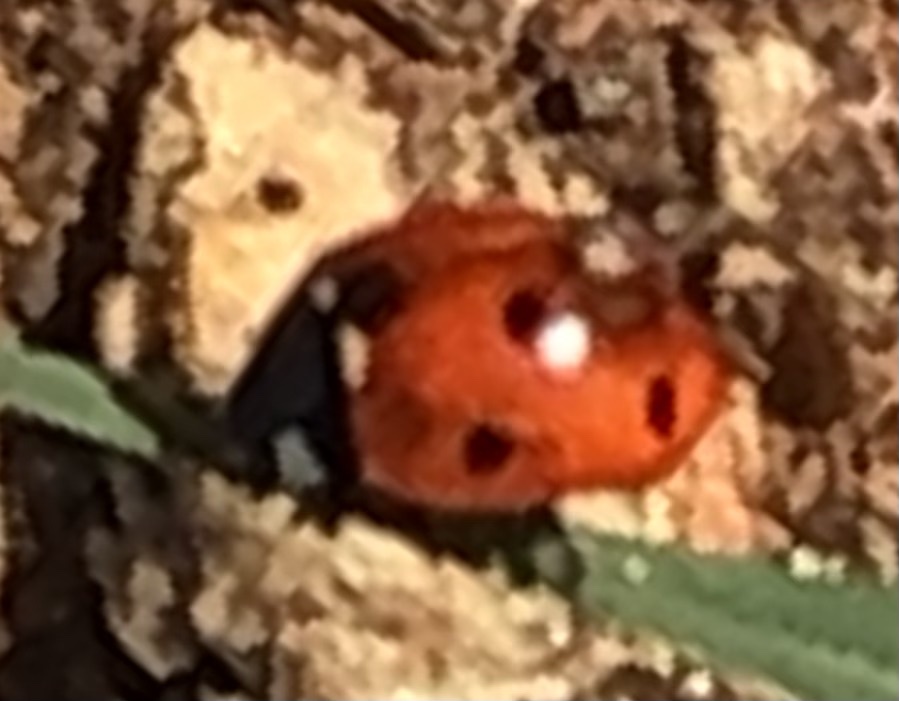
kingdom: Animalia
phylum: Arthropoda
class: Insecta
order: Coleoptera
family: Coccinellidae
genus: Coccinella
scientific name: Coccinella septempunctata
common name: Sevenspotted lady beetle
